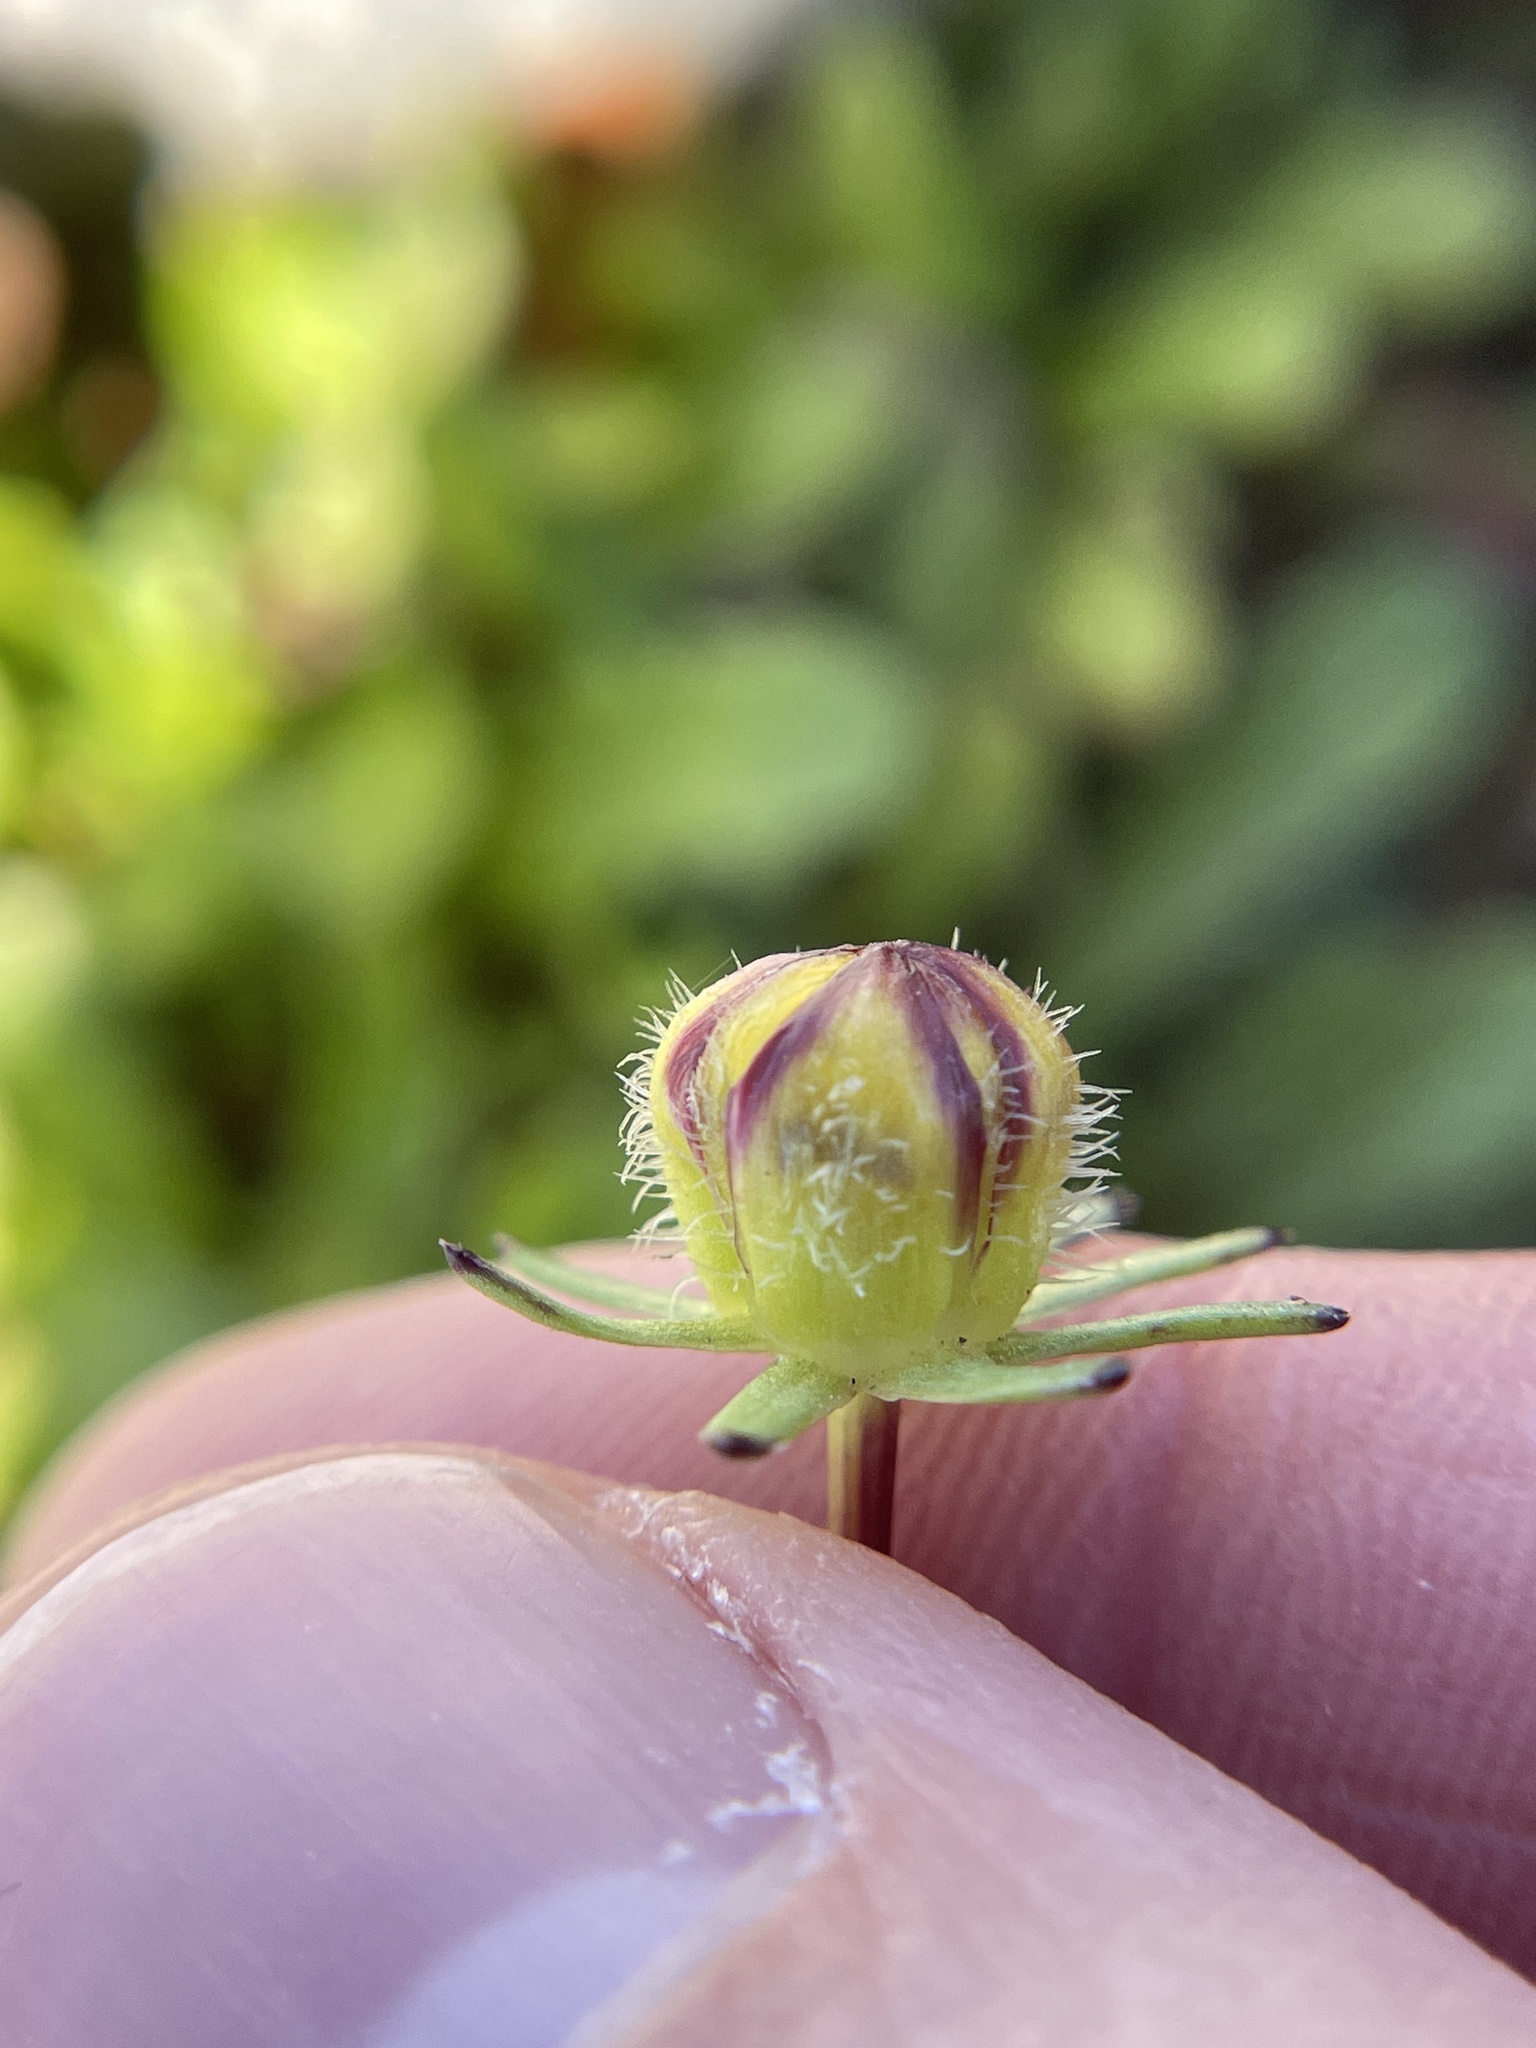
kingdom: Plantae
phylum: Tracheophyta
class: Magnoliopsida
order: Asterales
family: Asteraceae
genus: Coreopsis
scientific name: Coreopsis nuecensis
